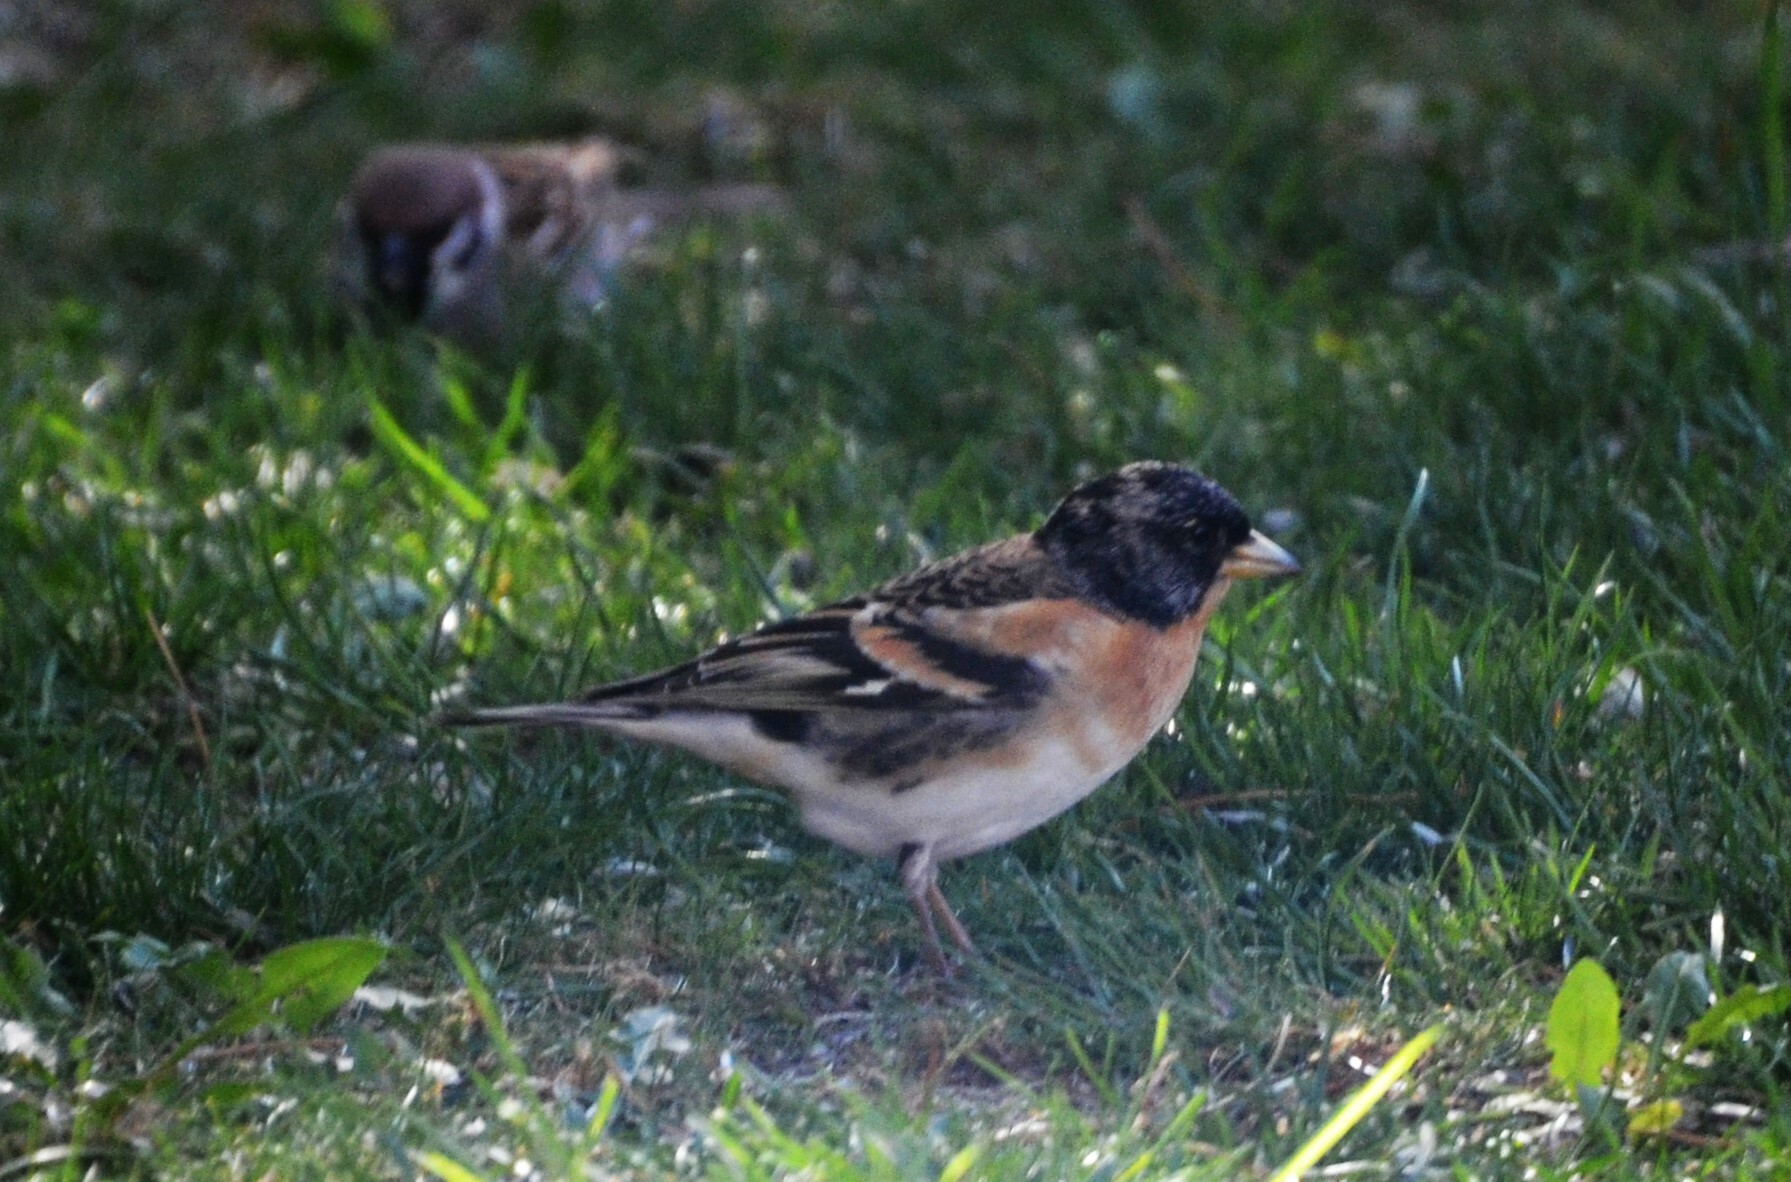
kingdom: Animalia
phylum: Chordata
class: Aves
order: Passeriformes
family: Fringillidae
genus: Fringilla
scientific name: Fringilla montifringilla
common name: Brambling
